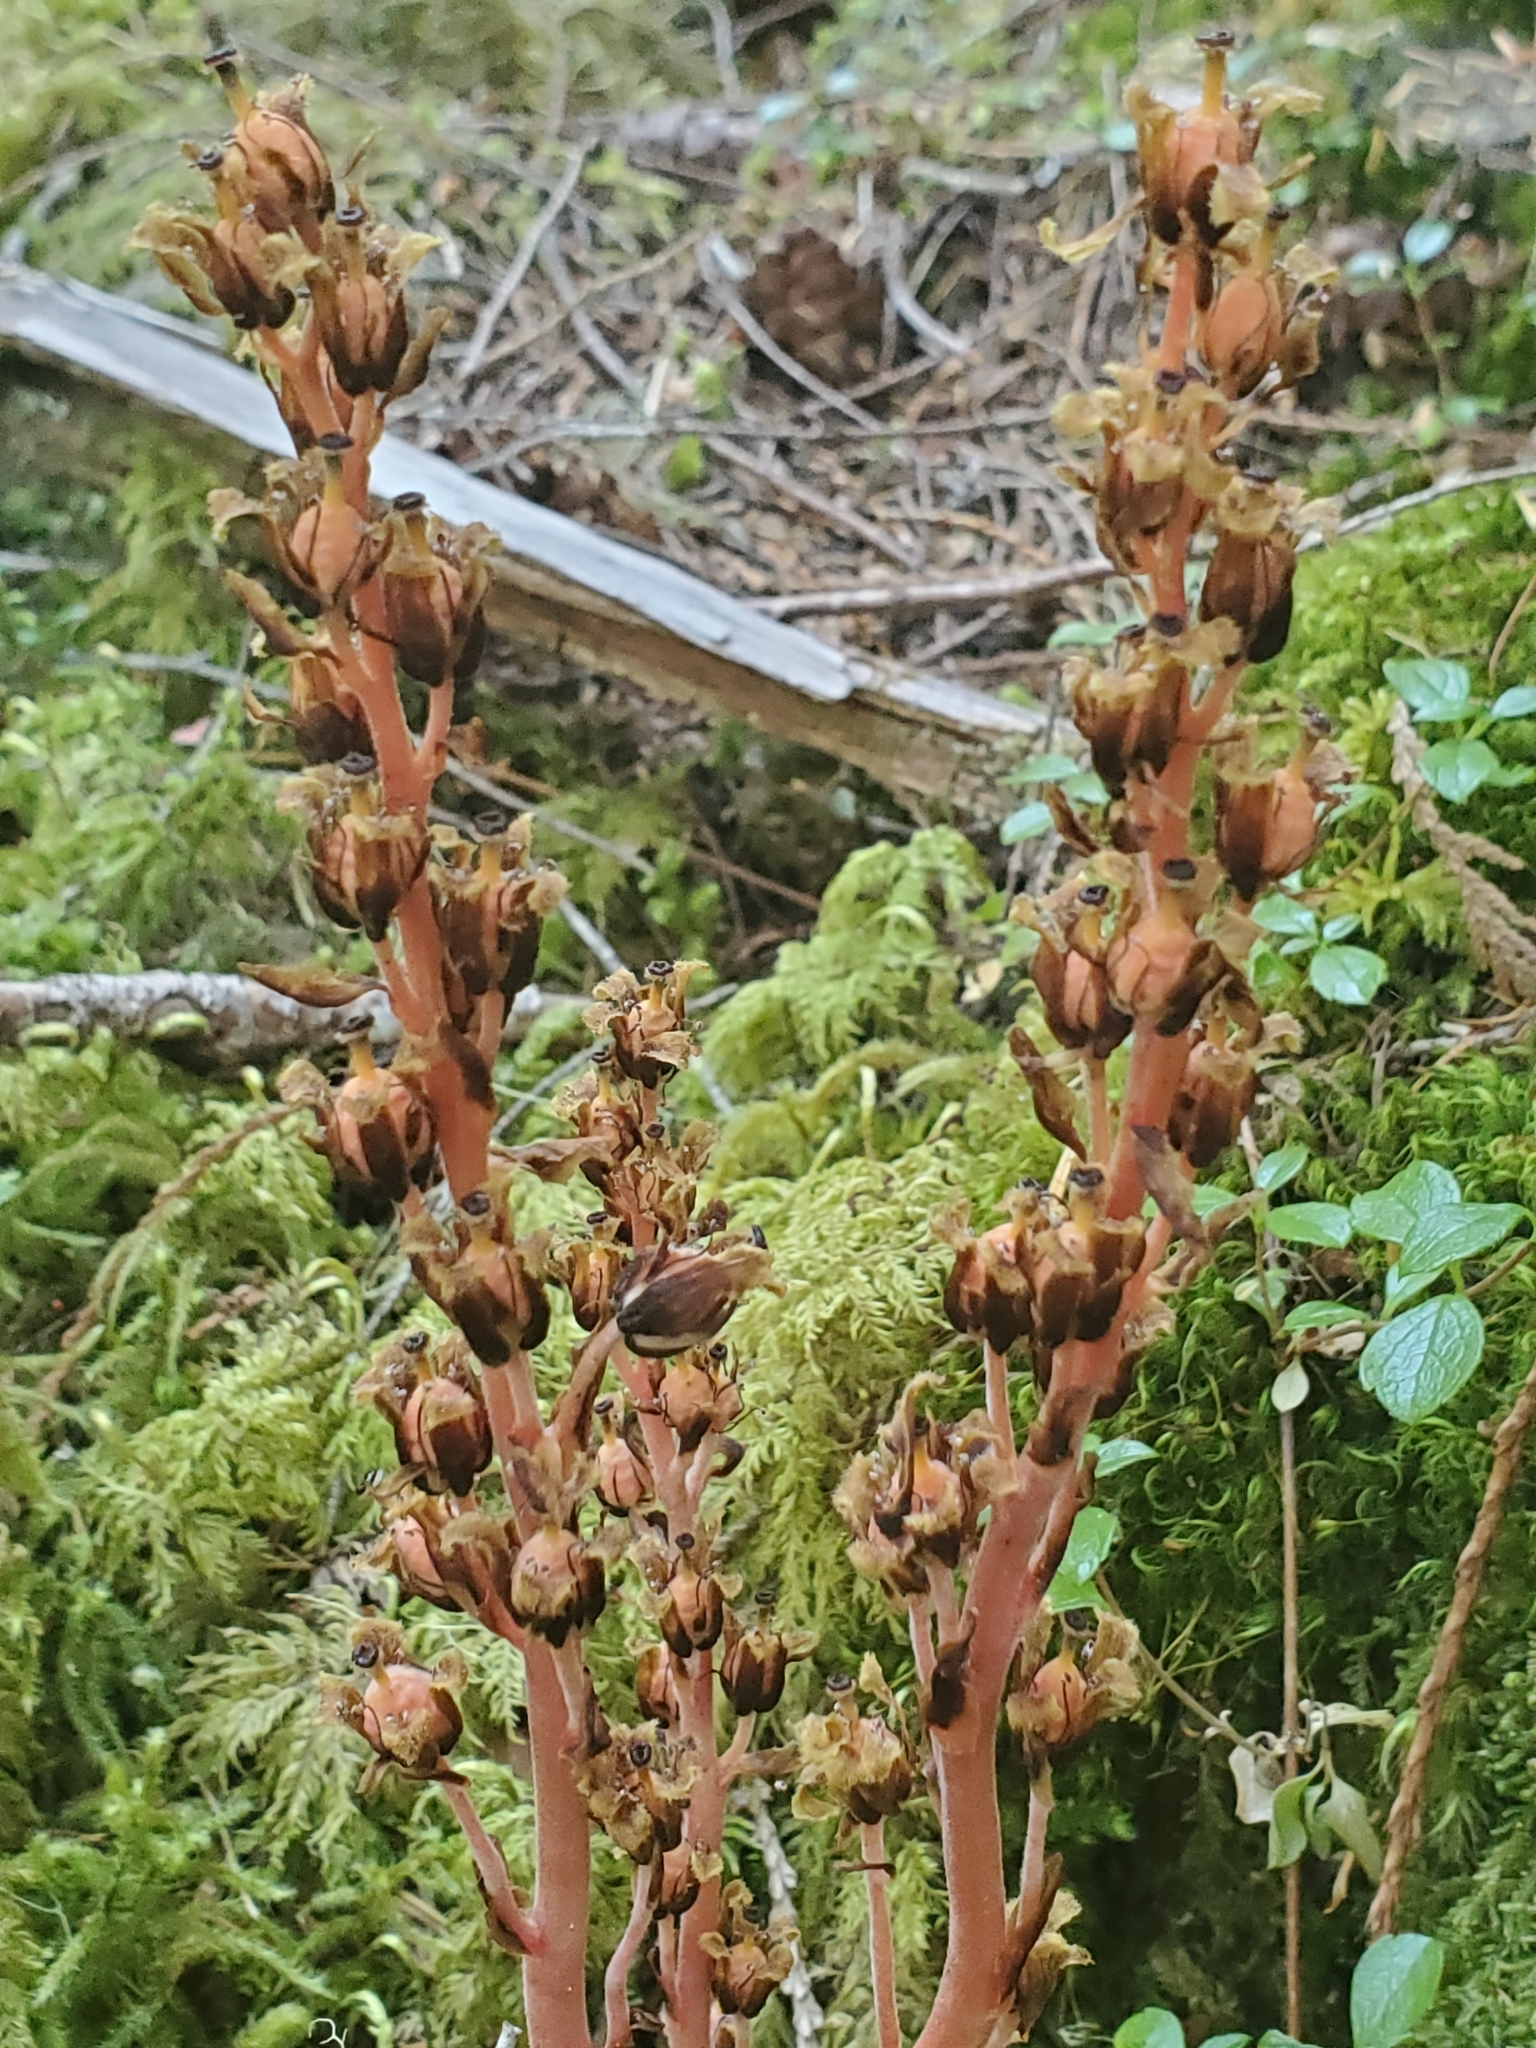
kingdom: Plantae
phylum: Tracheophyta
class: Magnoliopsida
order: Ericales
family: Ericaceae
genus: Hypopitys
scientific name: Hypopitys monotropa
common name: Yellow bird's-nest
